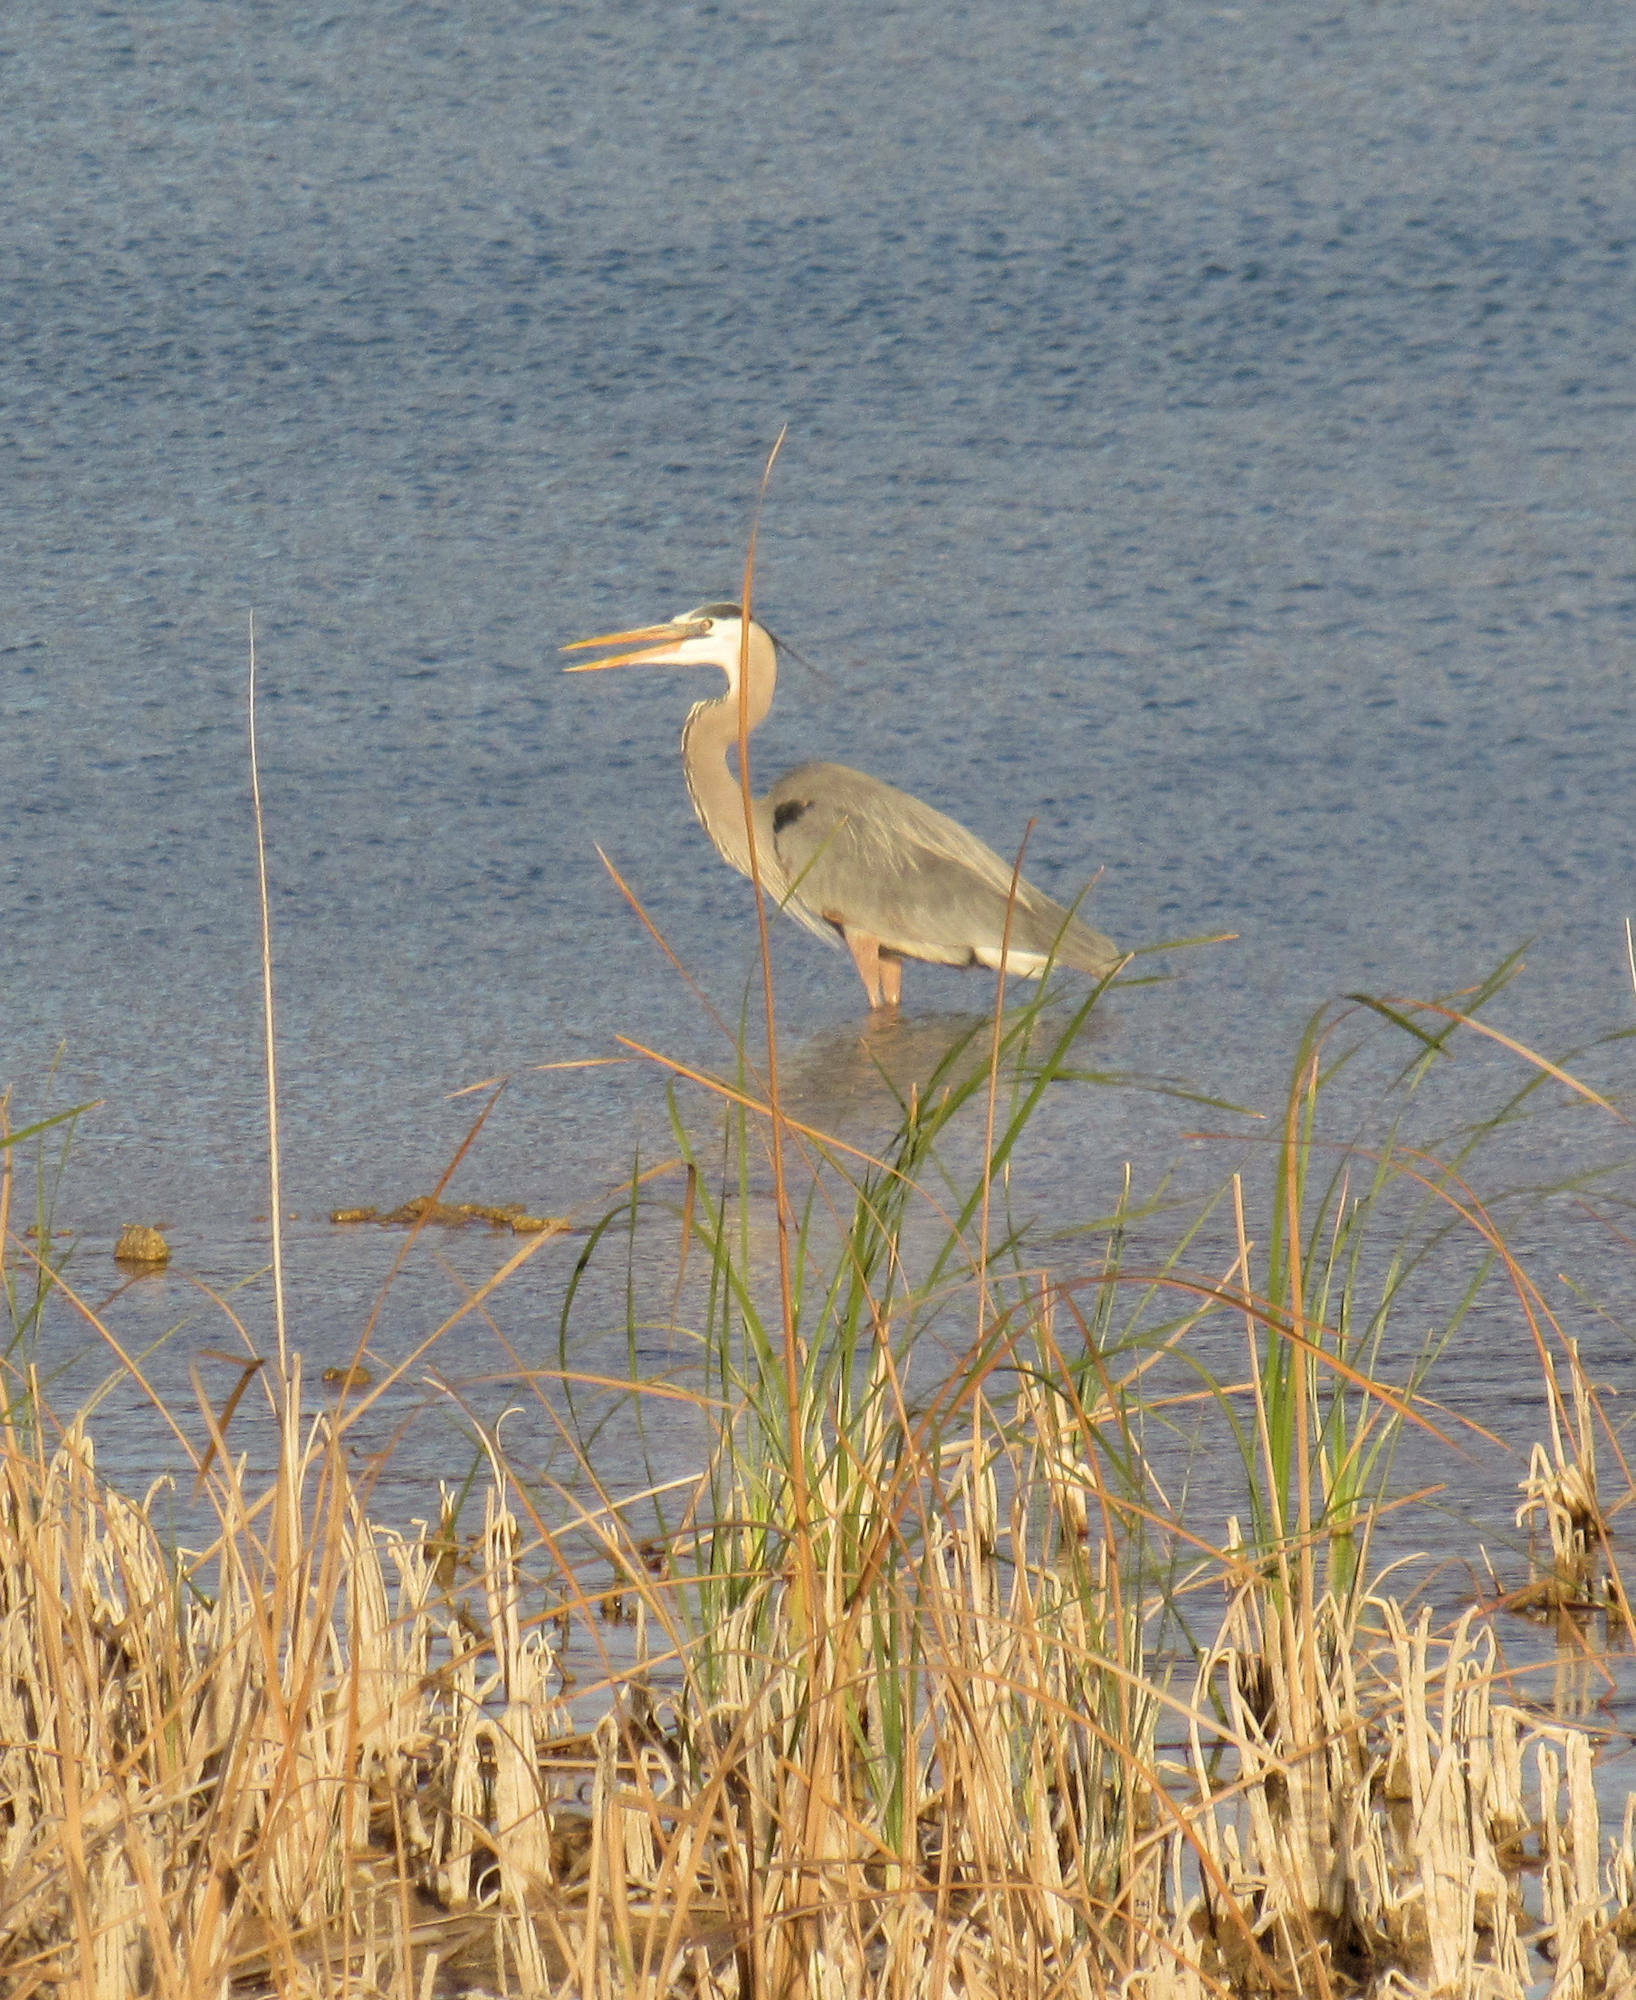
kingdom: Animalia
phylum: Chordata
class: Aves
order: Pelecaniformes
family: Ardeidae
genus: Ardea
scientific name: Ardea herodias
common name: Great blue heron
